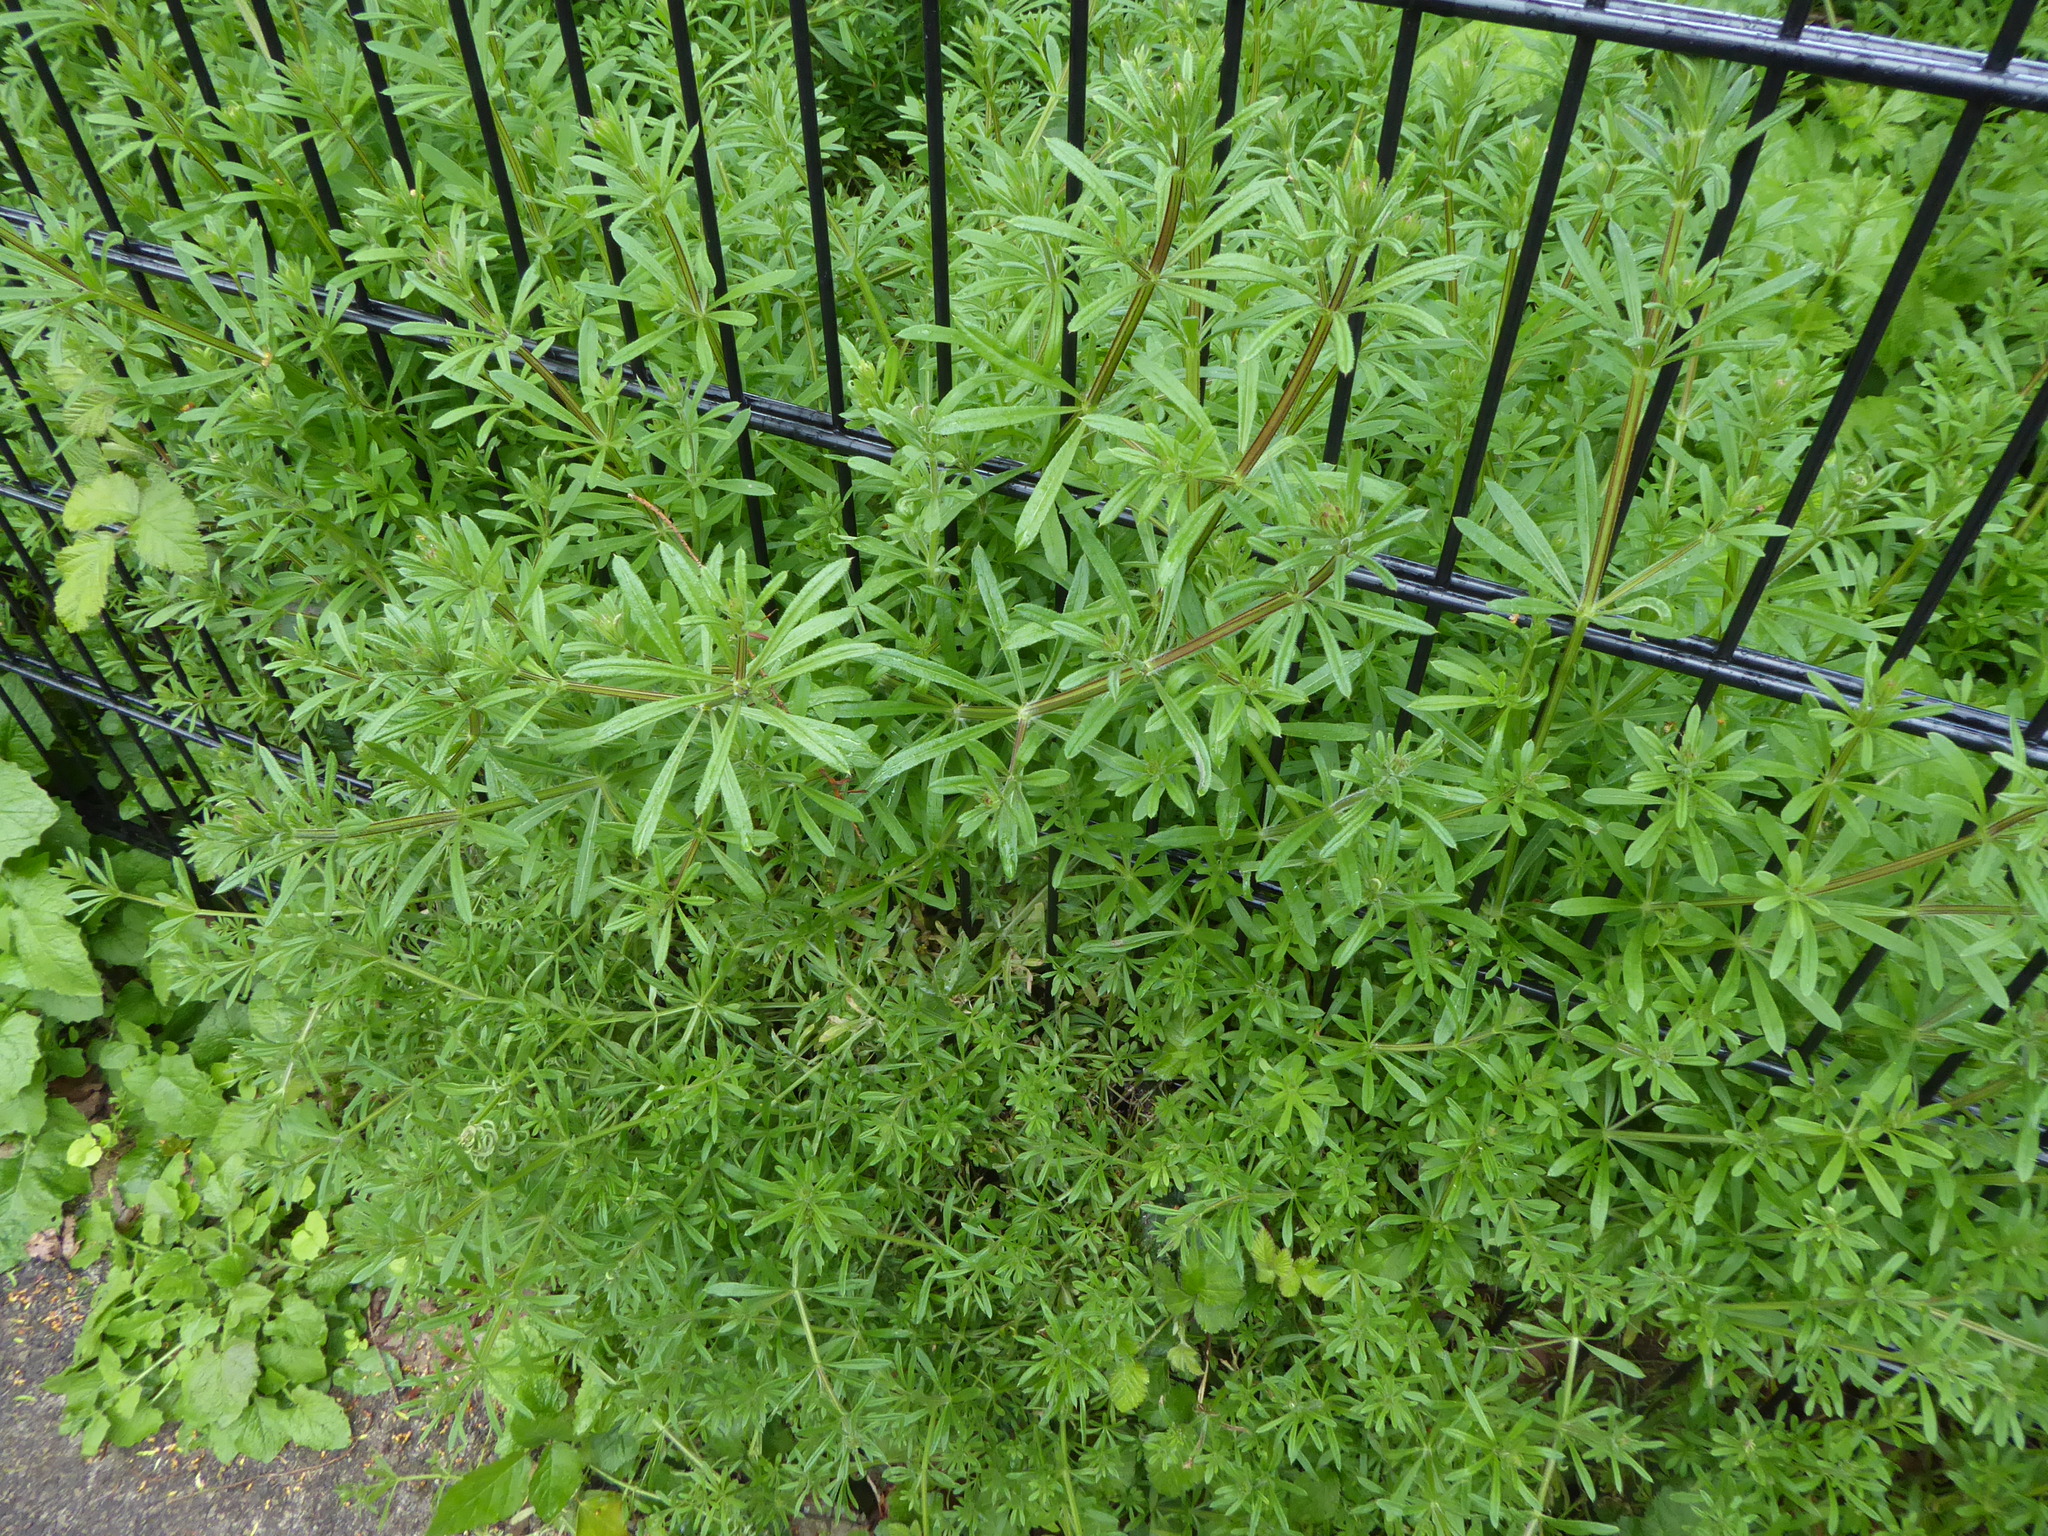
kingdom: Plantae
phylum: Tracheophyta
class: Magnoliopsida
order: Gentianales
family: Rubiaceae
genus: Galium
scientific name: Galium aparine
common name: Cleavers
